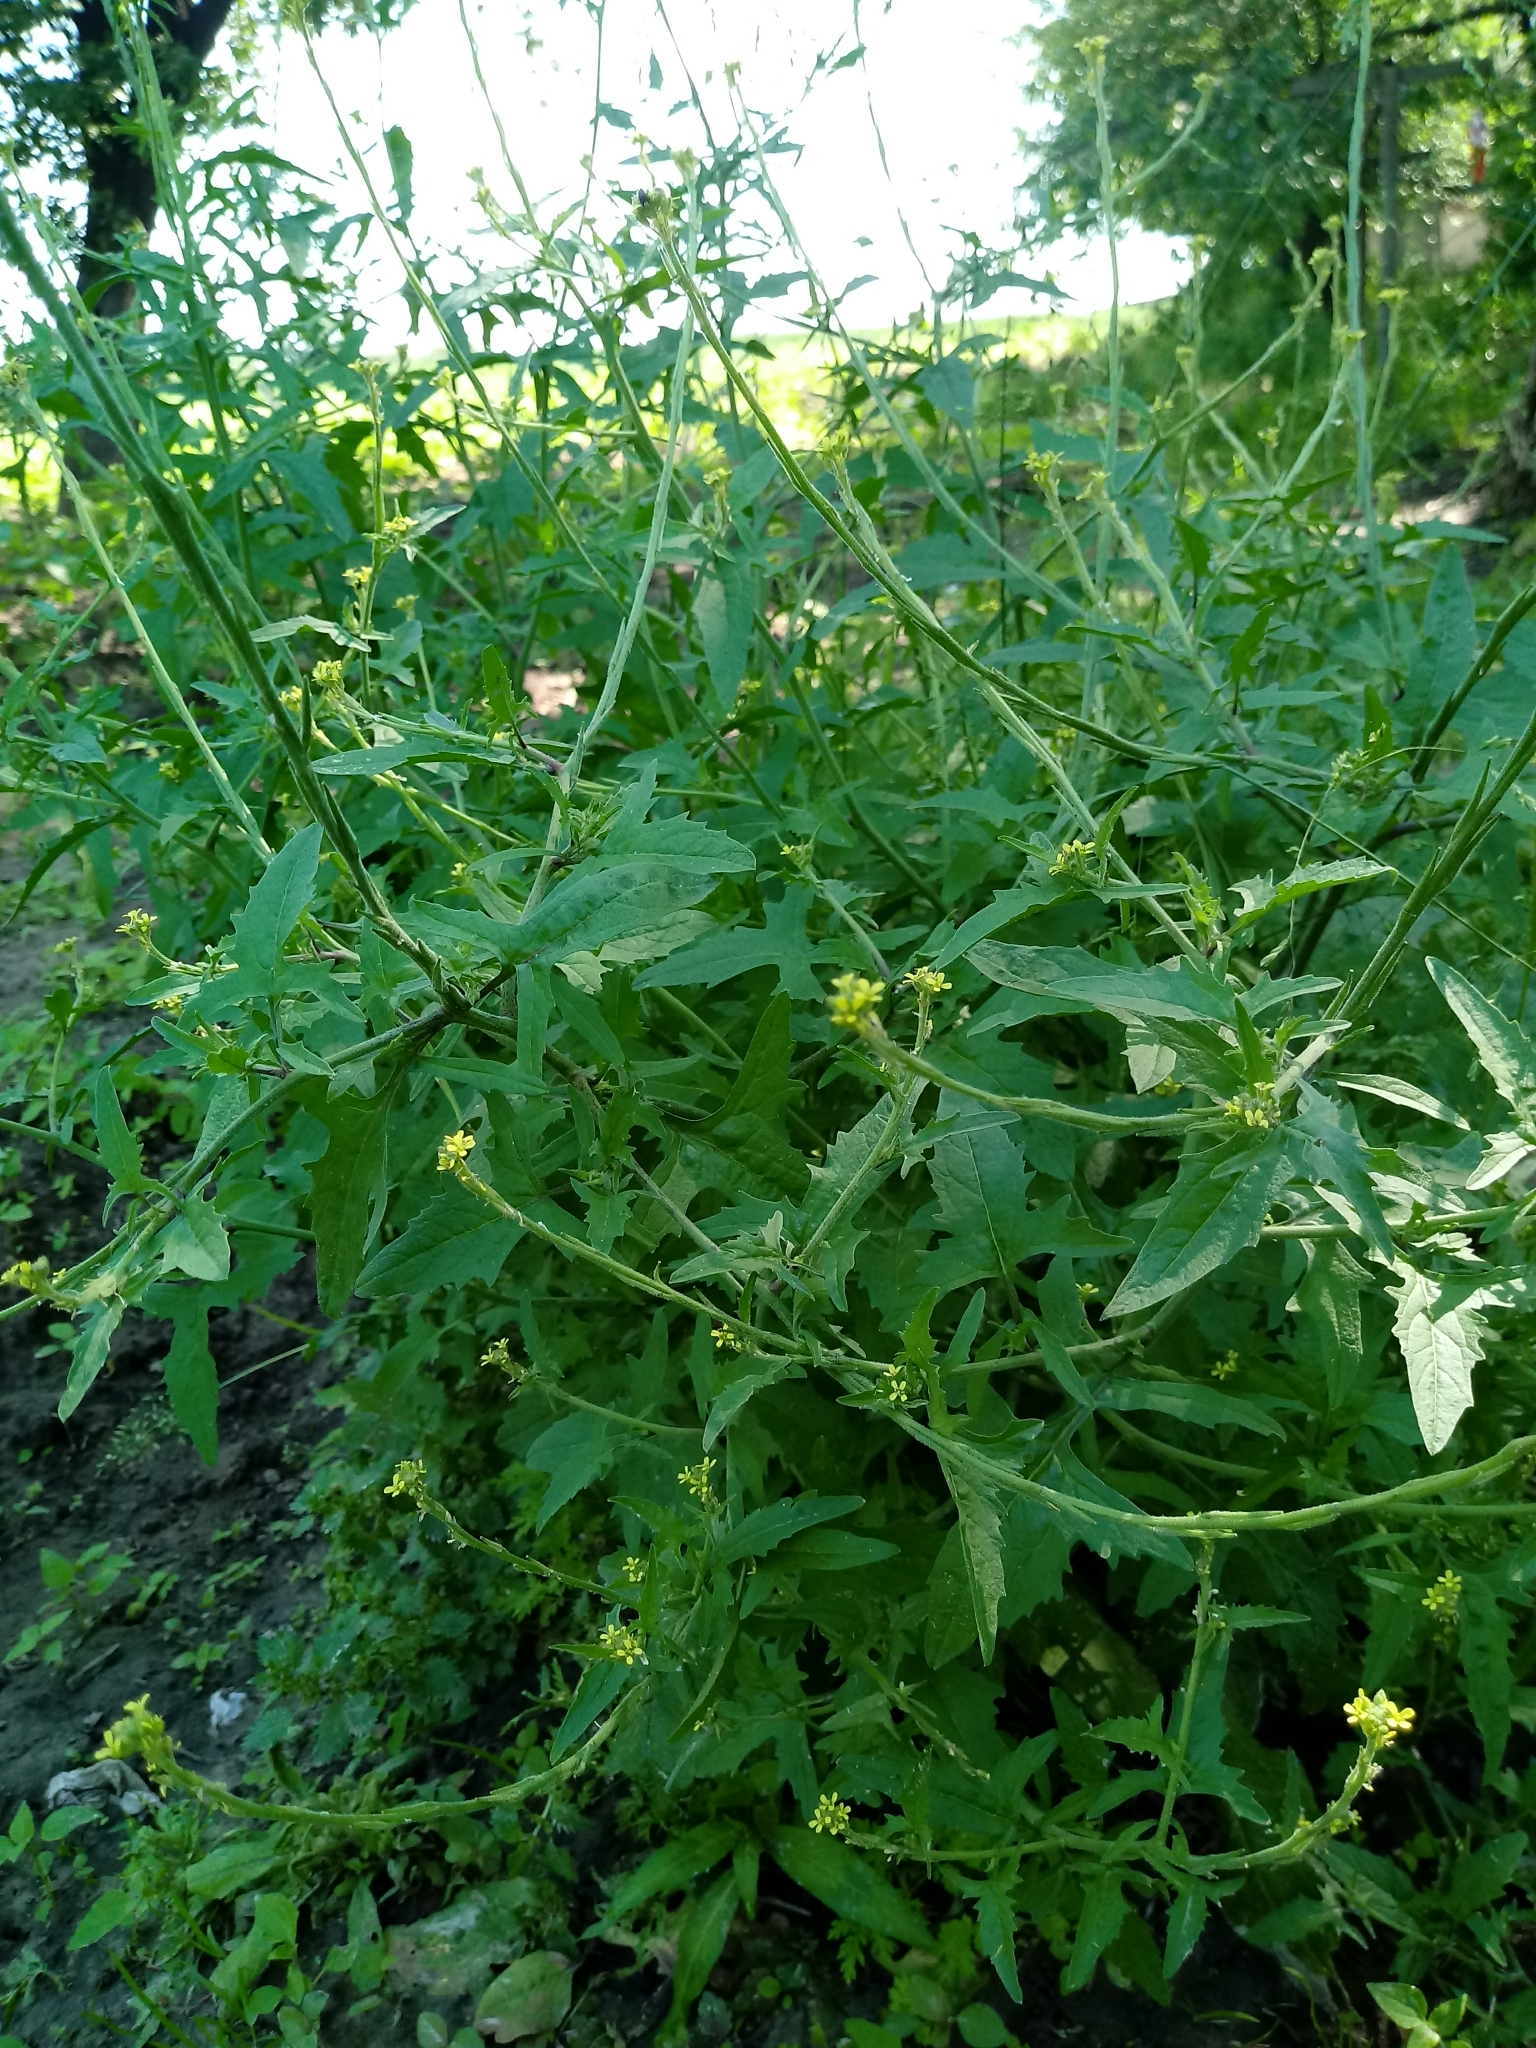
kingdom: Plantae
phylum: Tracheophyta
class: Magnoliopsida
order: Brassicales
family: Brassicaceae
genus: Sisymbrium
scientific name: Sisymbrium officinale
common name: Hedge mustard
